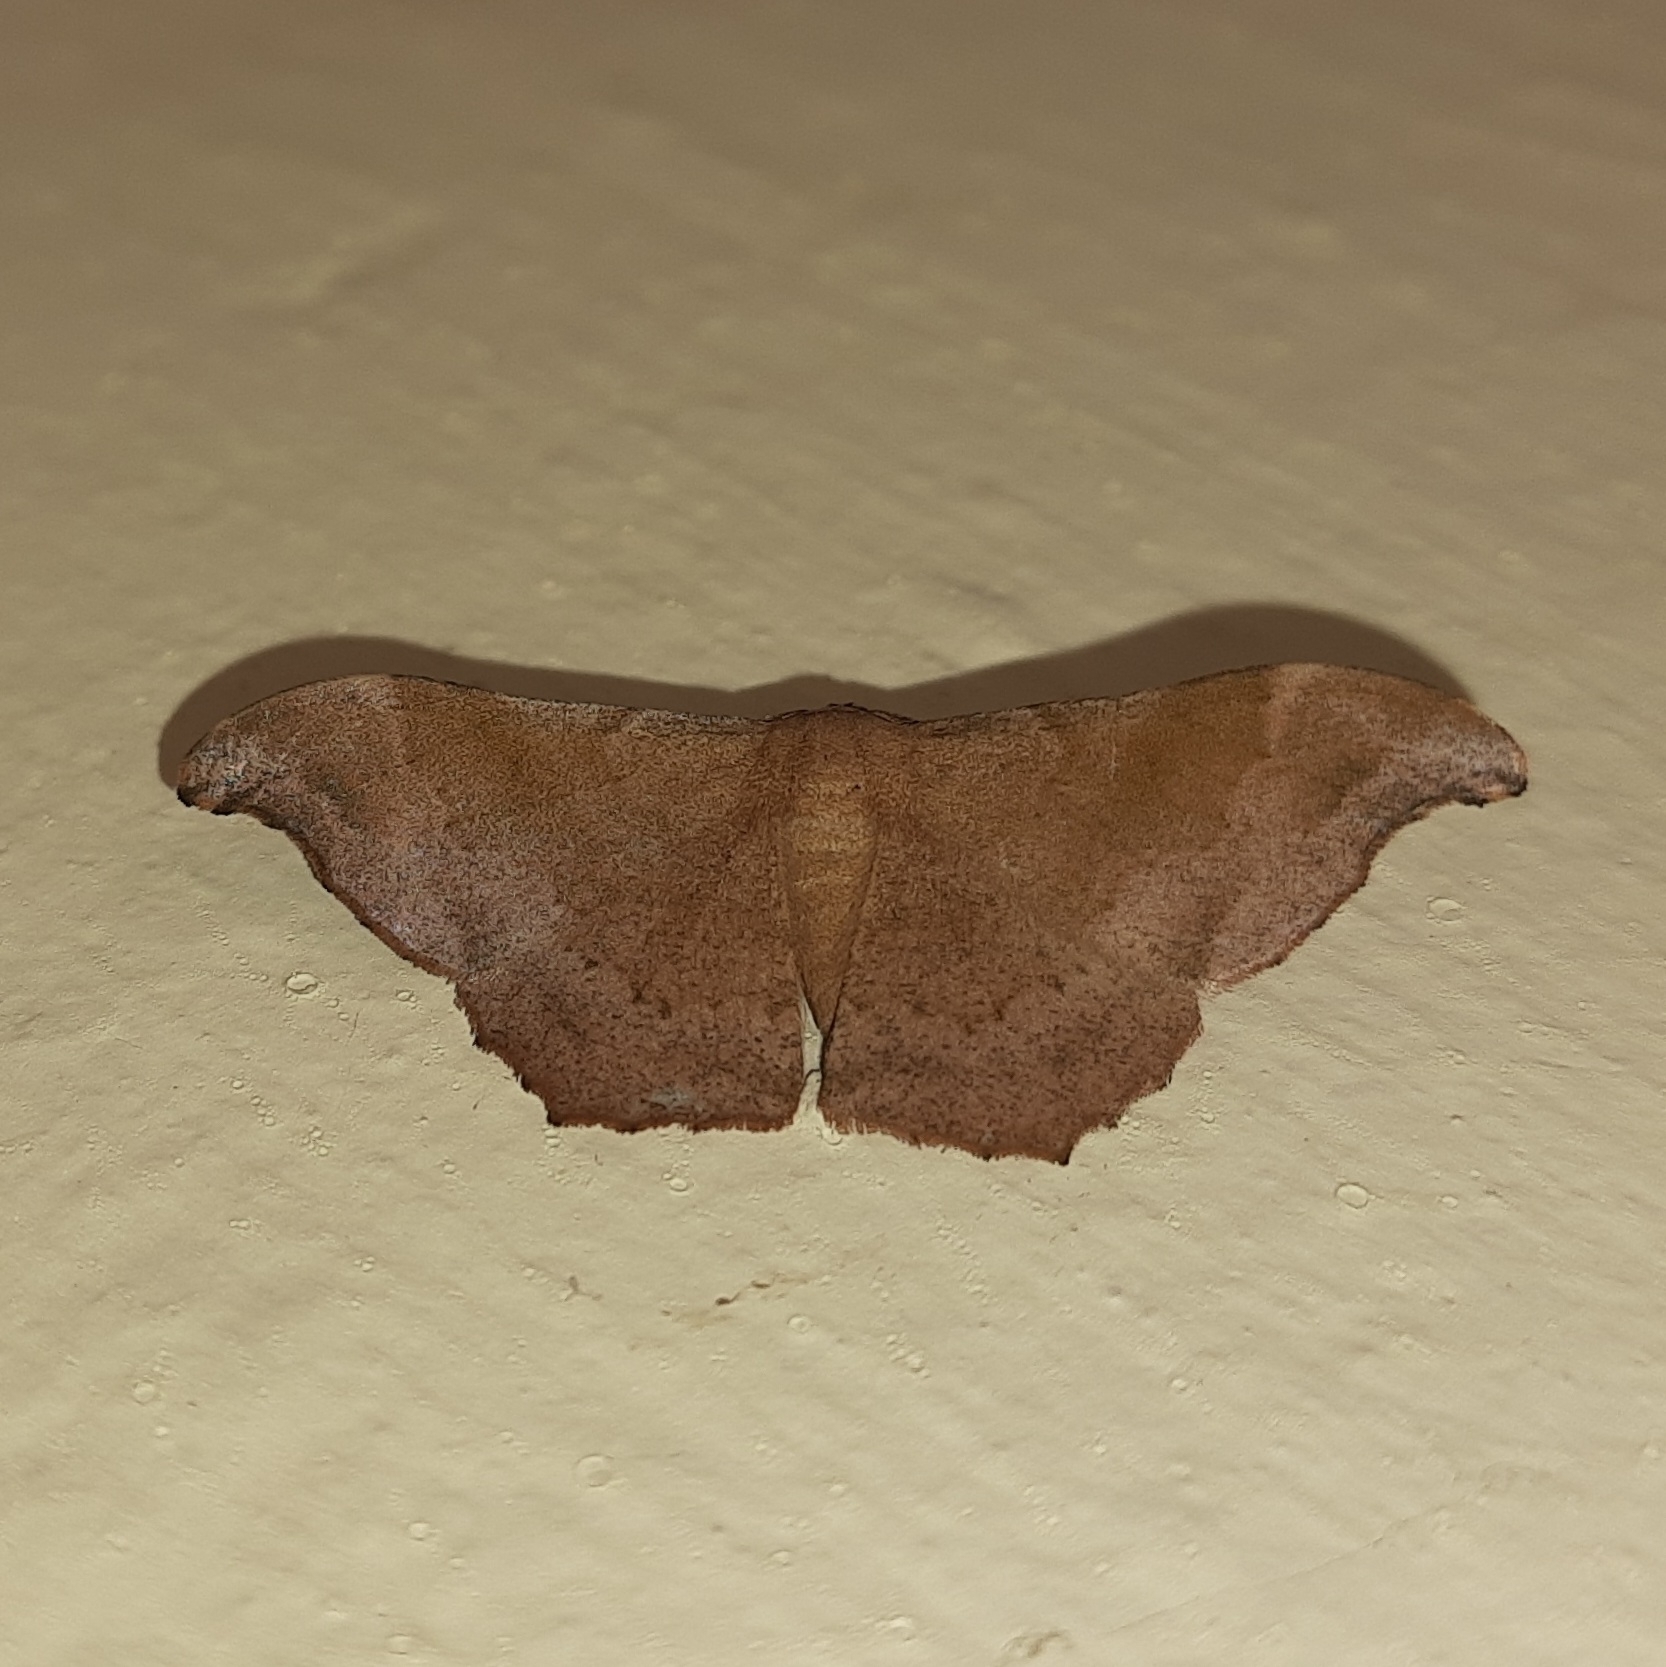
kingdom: Animalia
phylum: Arthropoda
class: Insecta
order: Lepidoptera
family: Geometridae
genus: Hyposidra
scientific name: Hyposidra talaca
